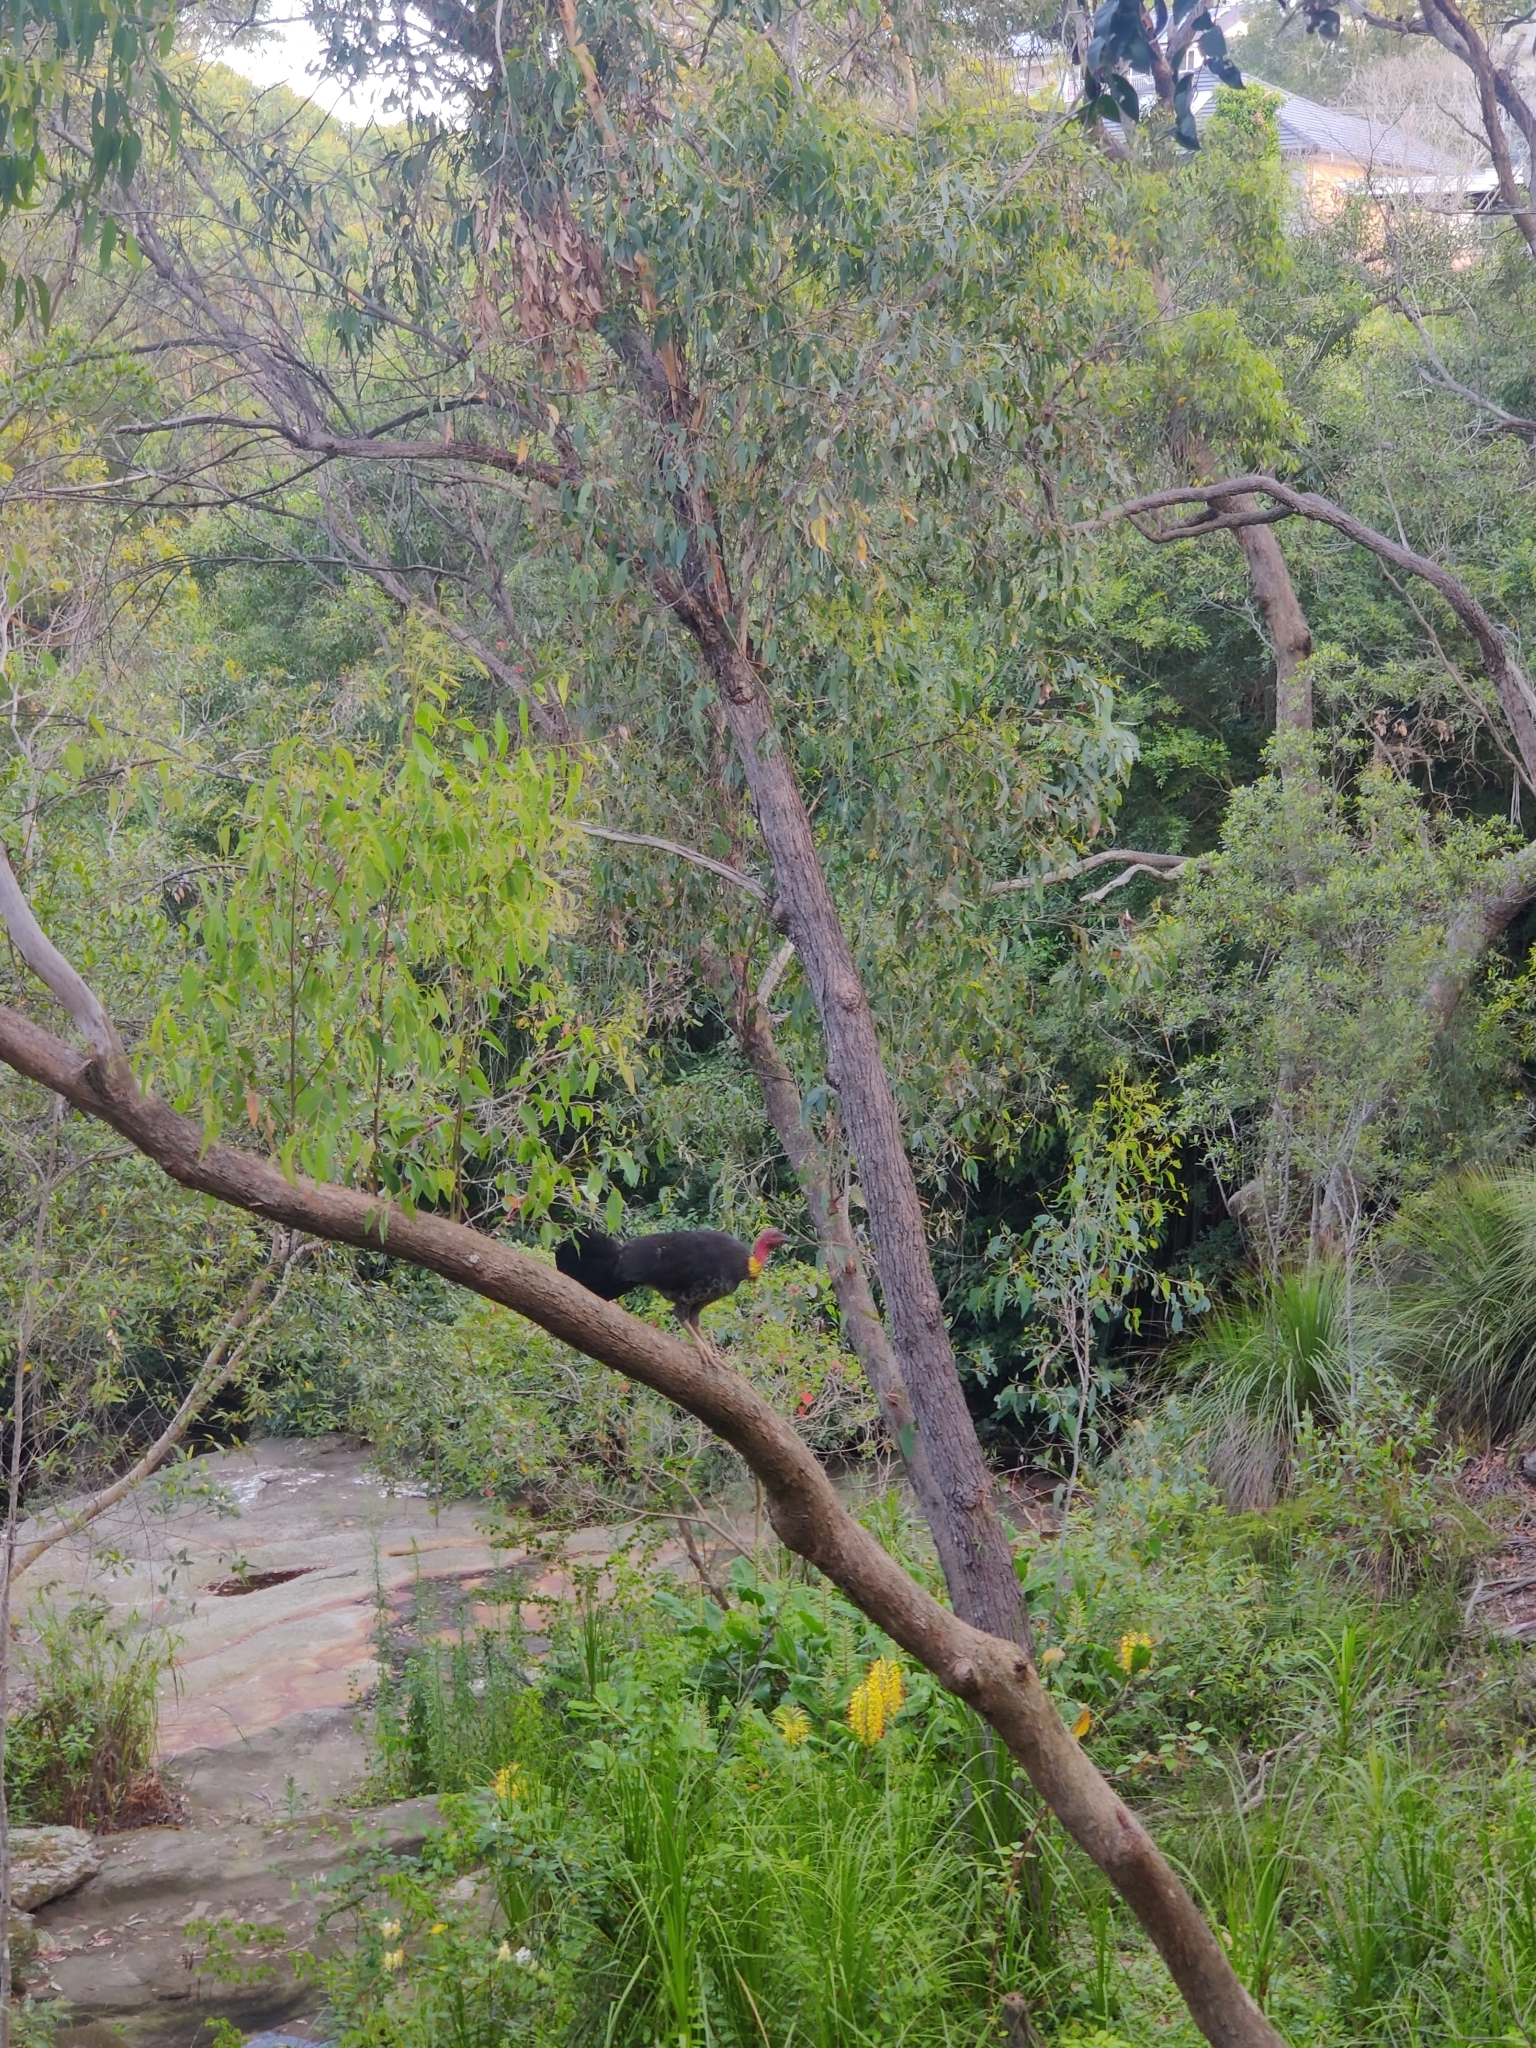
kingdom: Animalia
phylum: Chordata
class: Aves
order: Galliformes
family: Megapodiidae
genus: Alectura
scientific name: Alectura lathami
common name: Australian brushturkey
